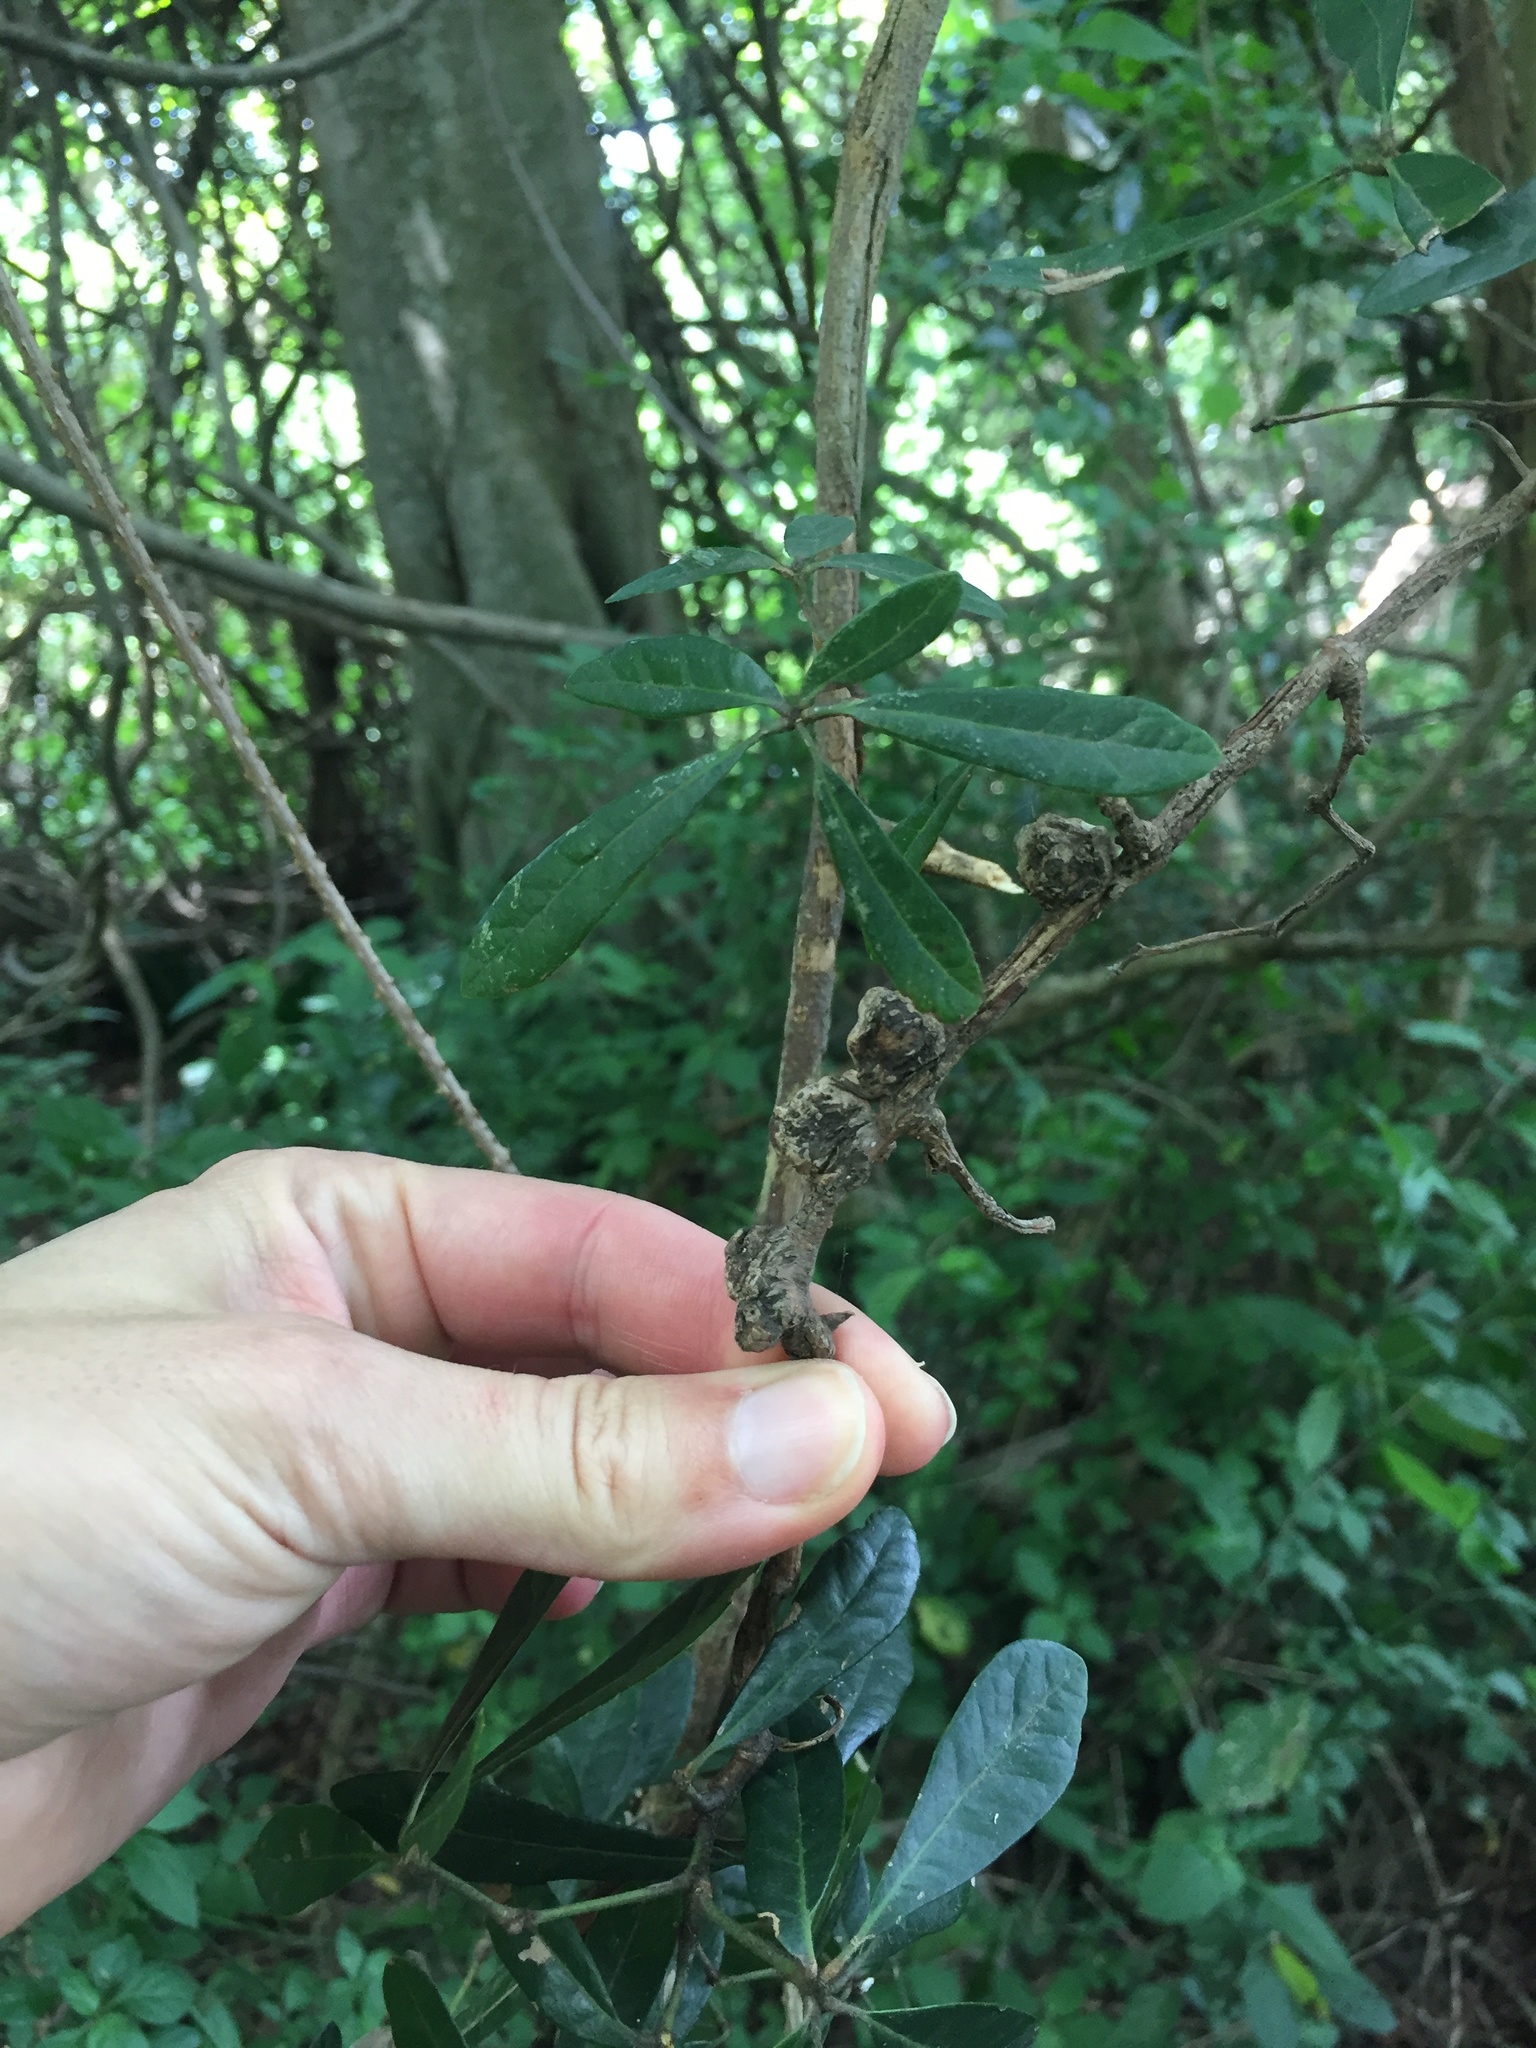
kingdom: Plantae
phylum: Tracheophyta
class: Magnoliopsida
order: Vitales
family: Vitaceae
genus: Rhoicissus
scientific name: Rhoicissus digitata
